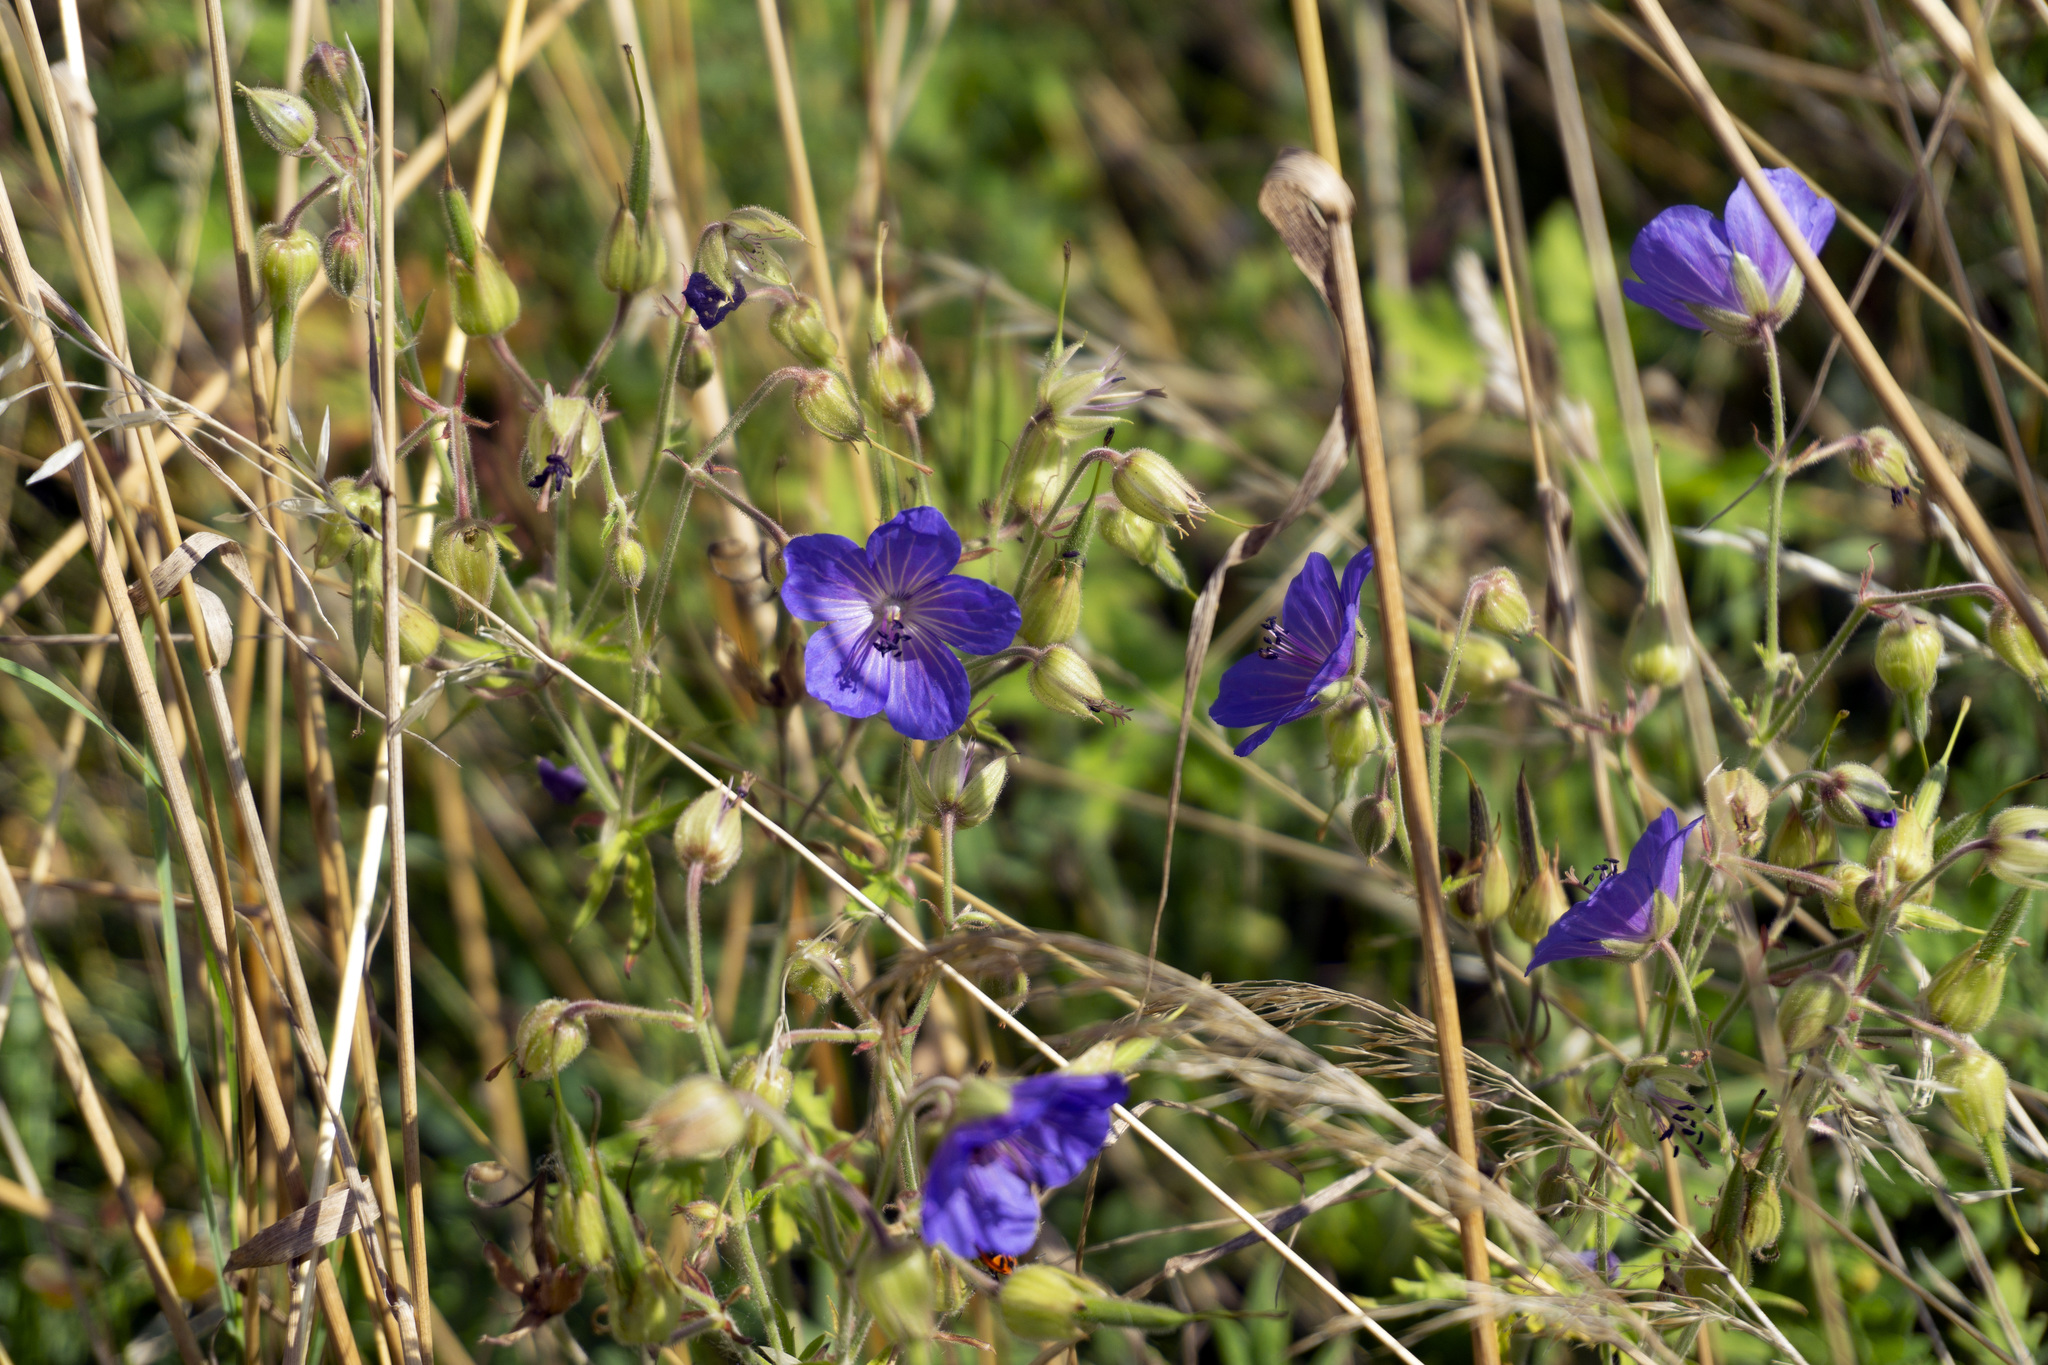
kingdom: Plantae
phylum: Tracheophyta
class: Magnoliopsida
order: Geraniales
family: Geraniaceae
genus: Geranium
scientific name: Geranium pratense
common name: Meadow crane's-bill
